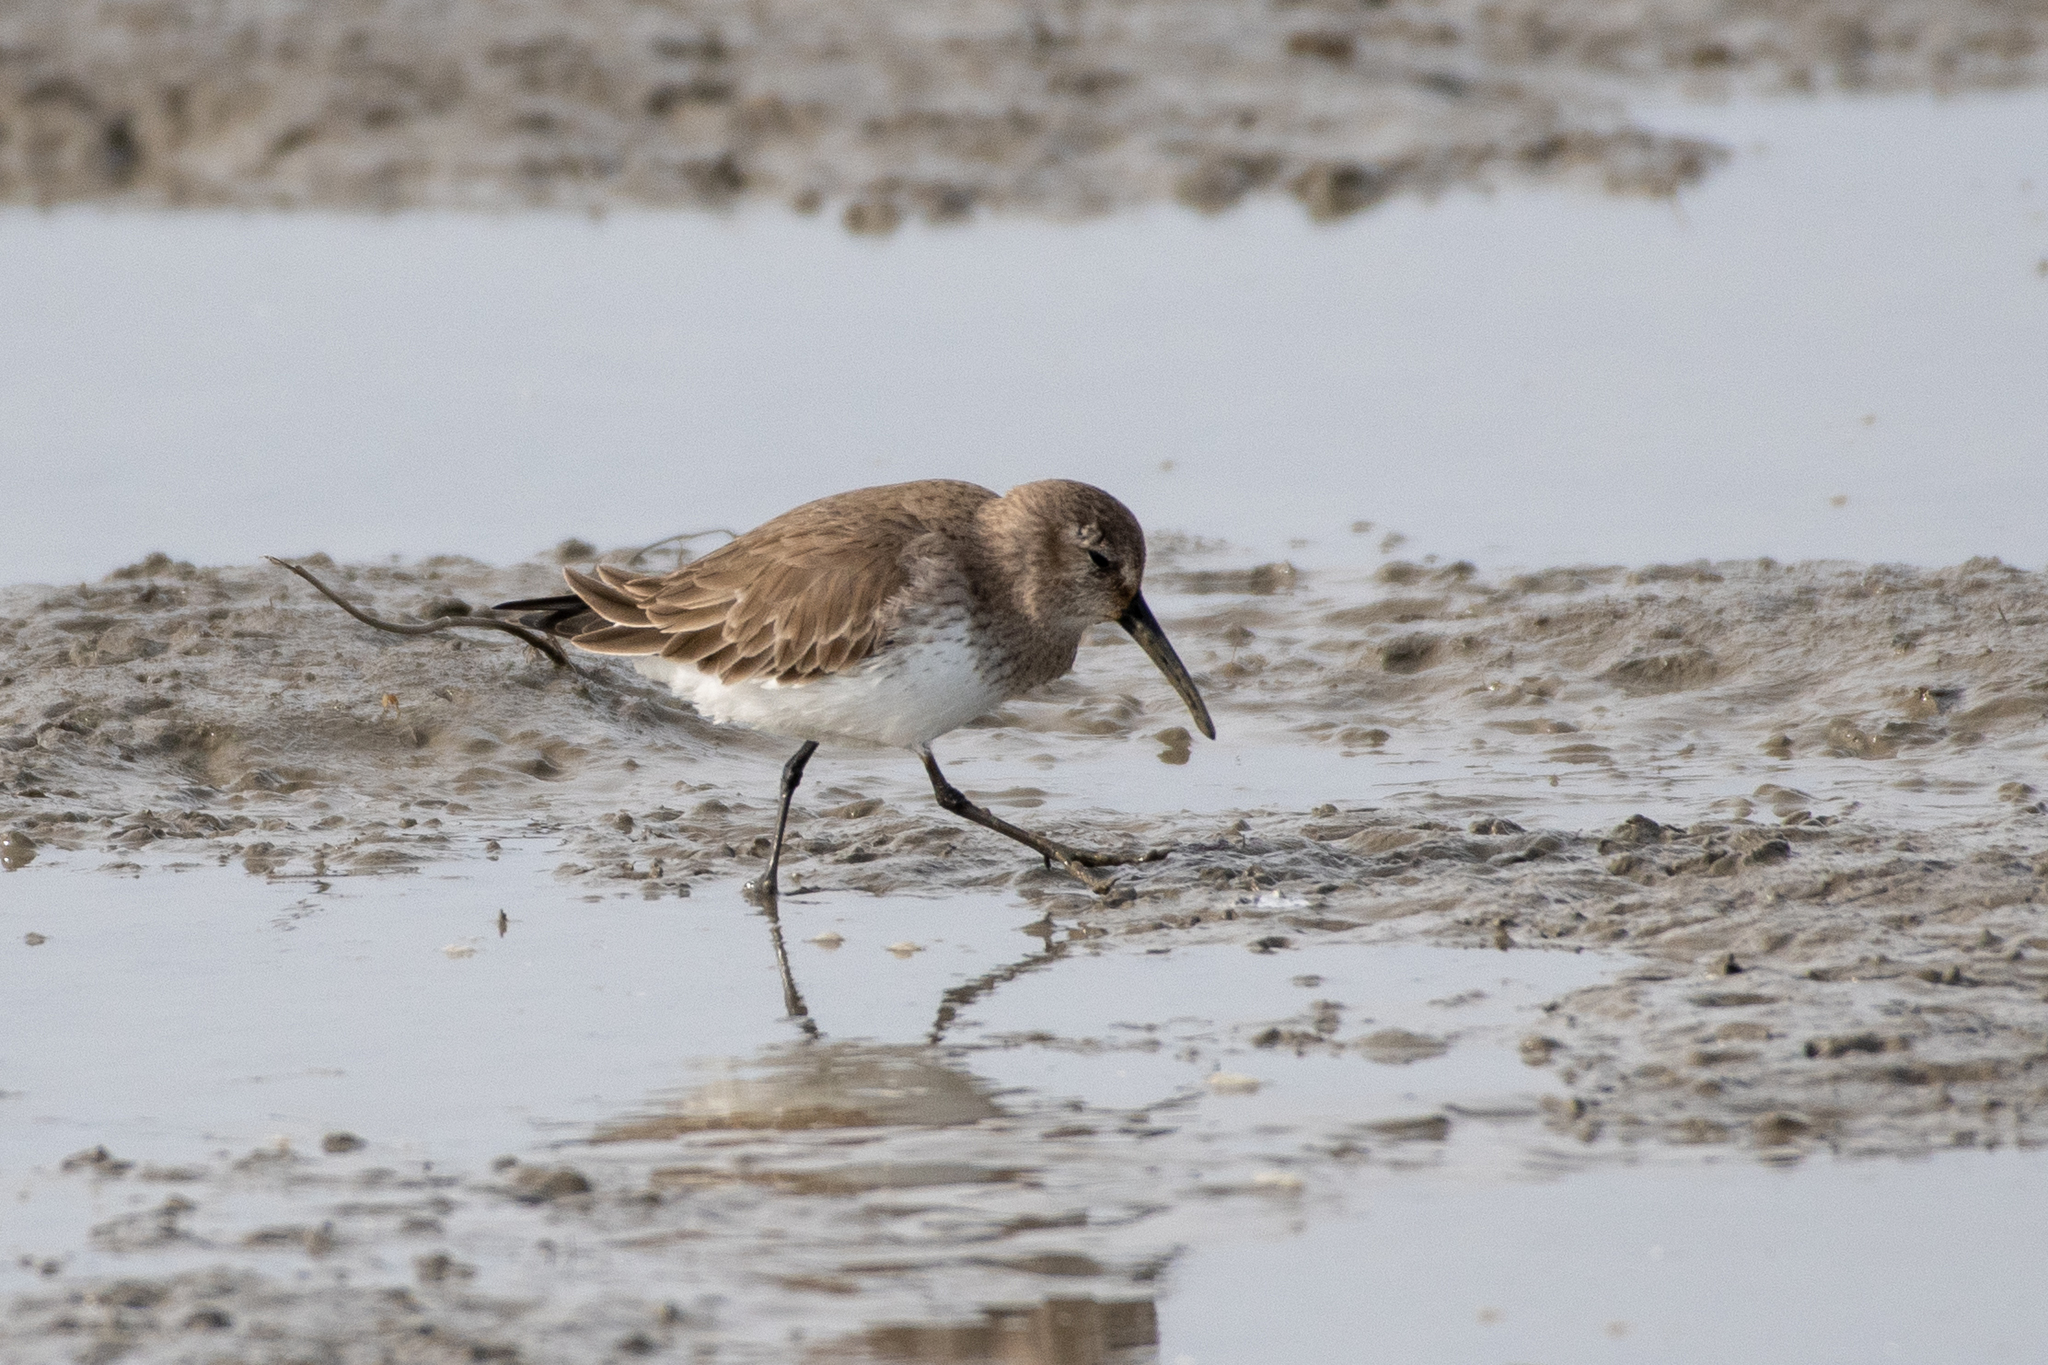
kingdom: Animalia
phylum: Chordata
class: Aves
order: Charadriiformes
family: Scolopacidae
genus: Calidris
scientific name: Calidris alpina
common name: Dunlin
